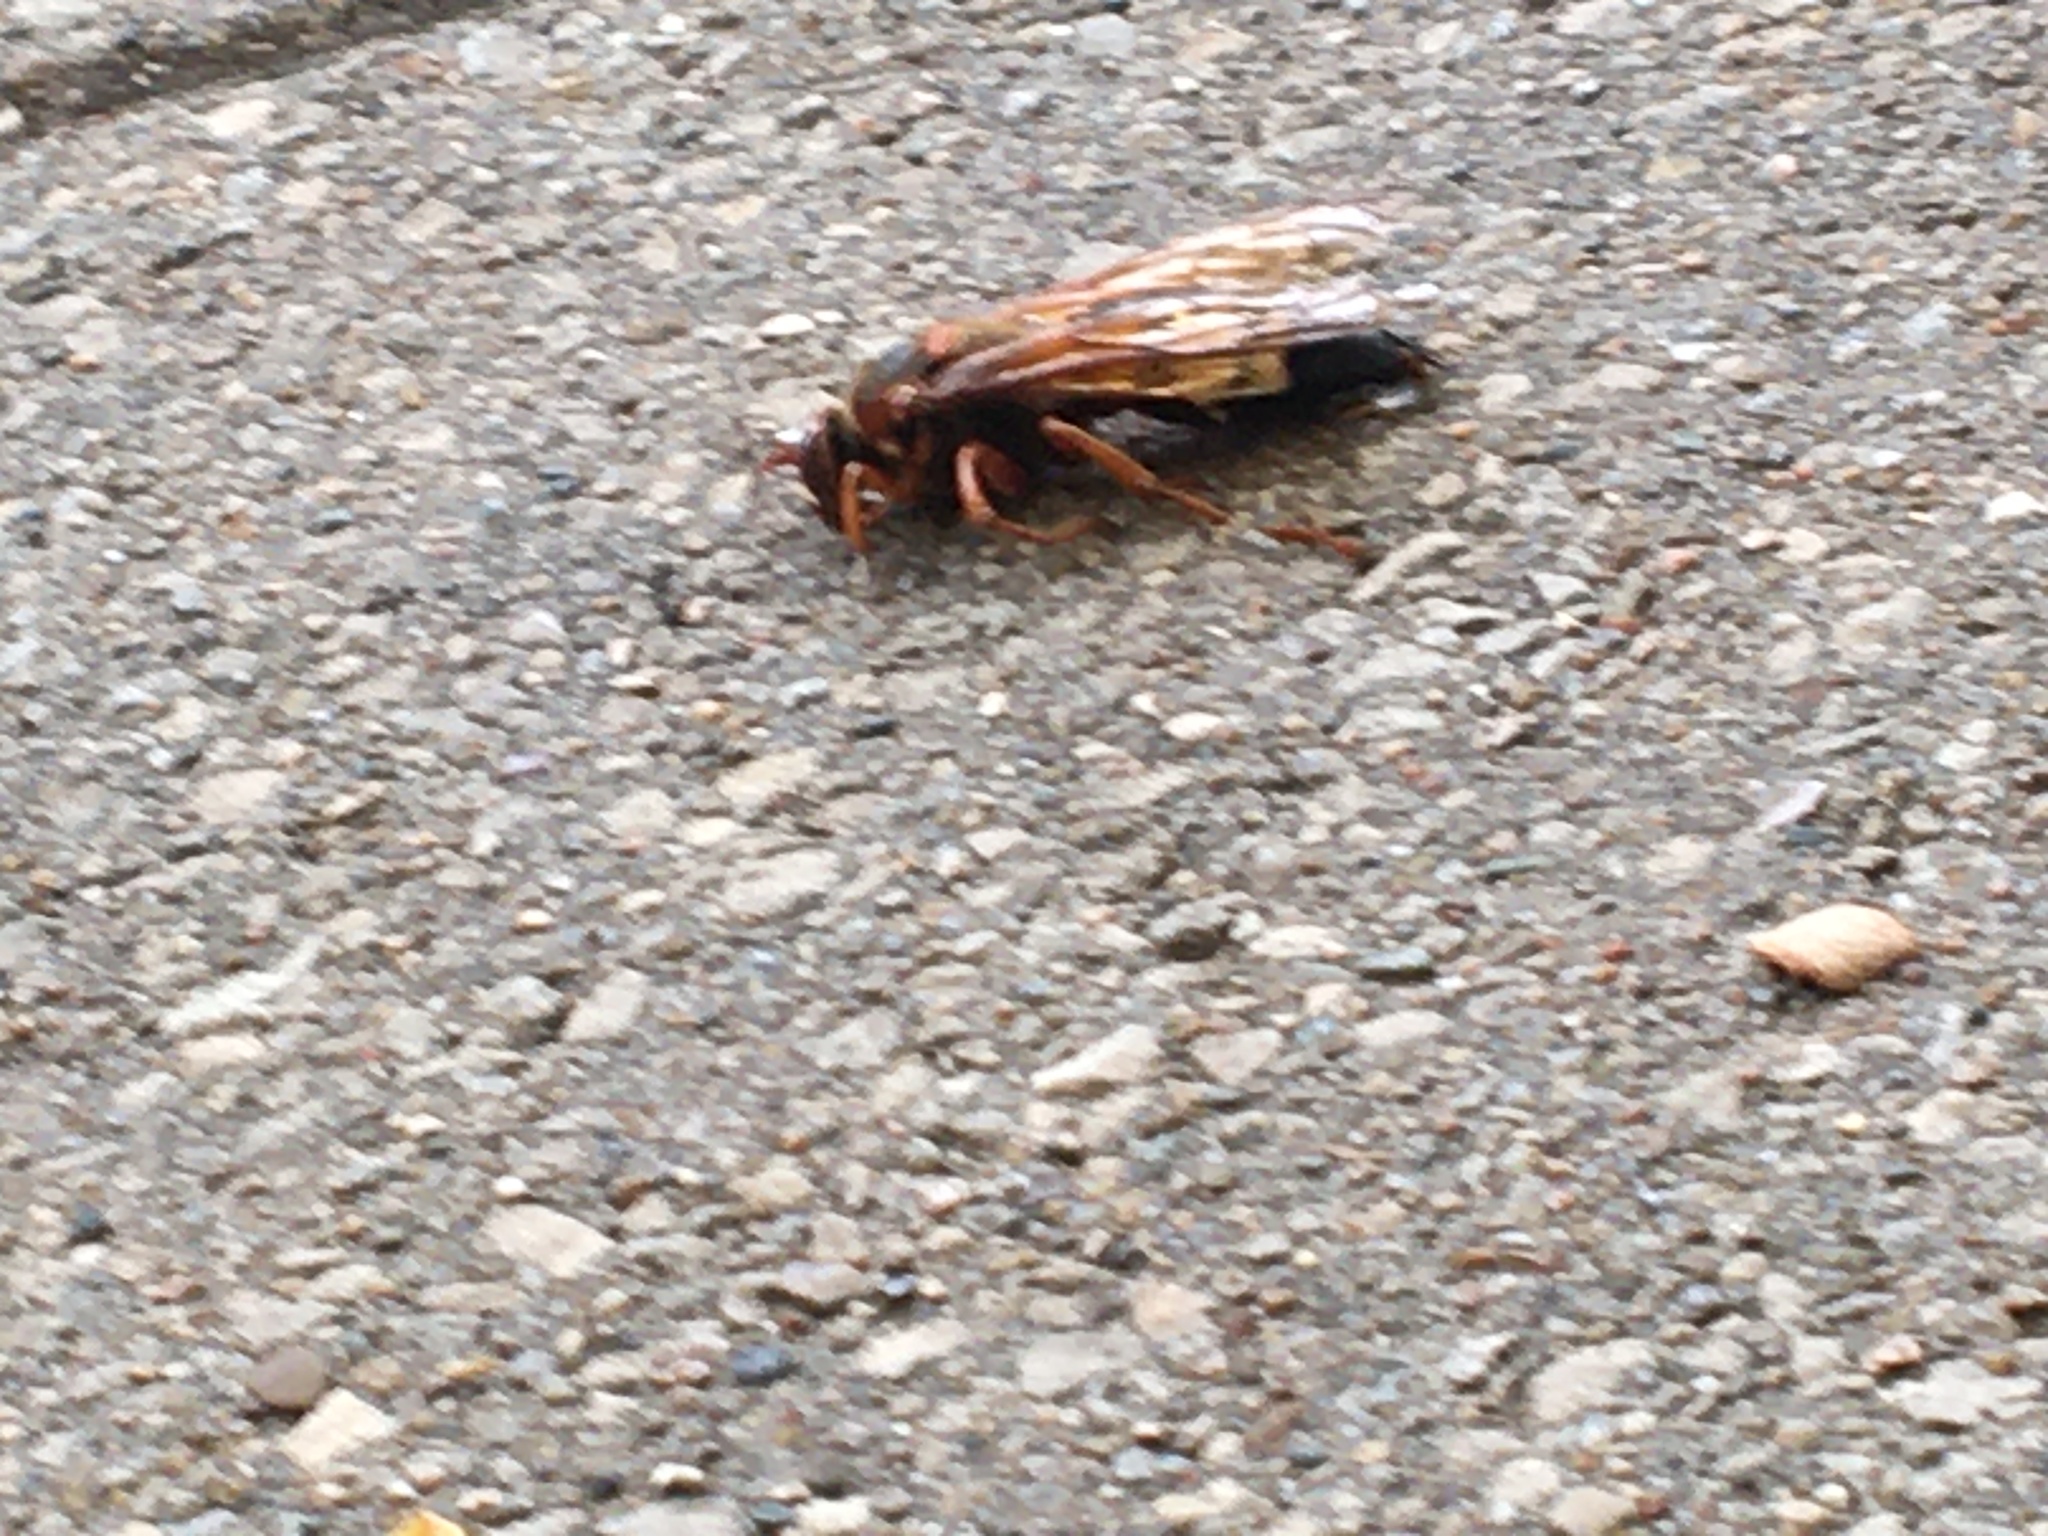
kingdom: Animalia
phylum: Arthropoda
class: Insecta
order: Hymenoptera
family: Crabronidae
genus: Sphecius
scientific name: Sphecius speciosus
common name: Cicada killer
